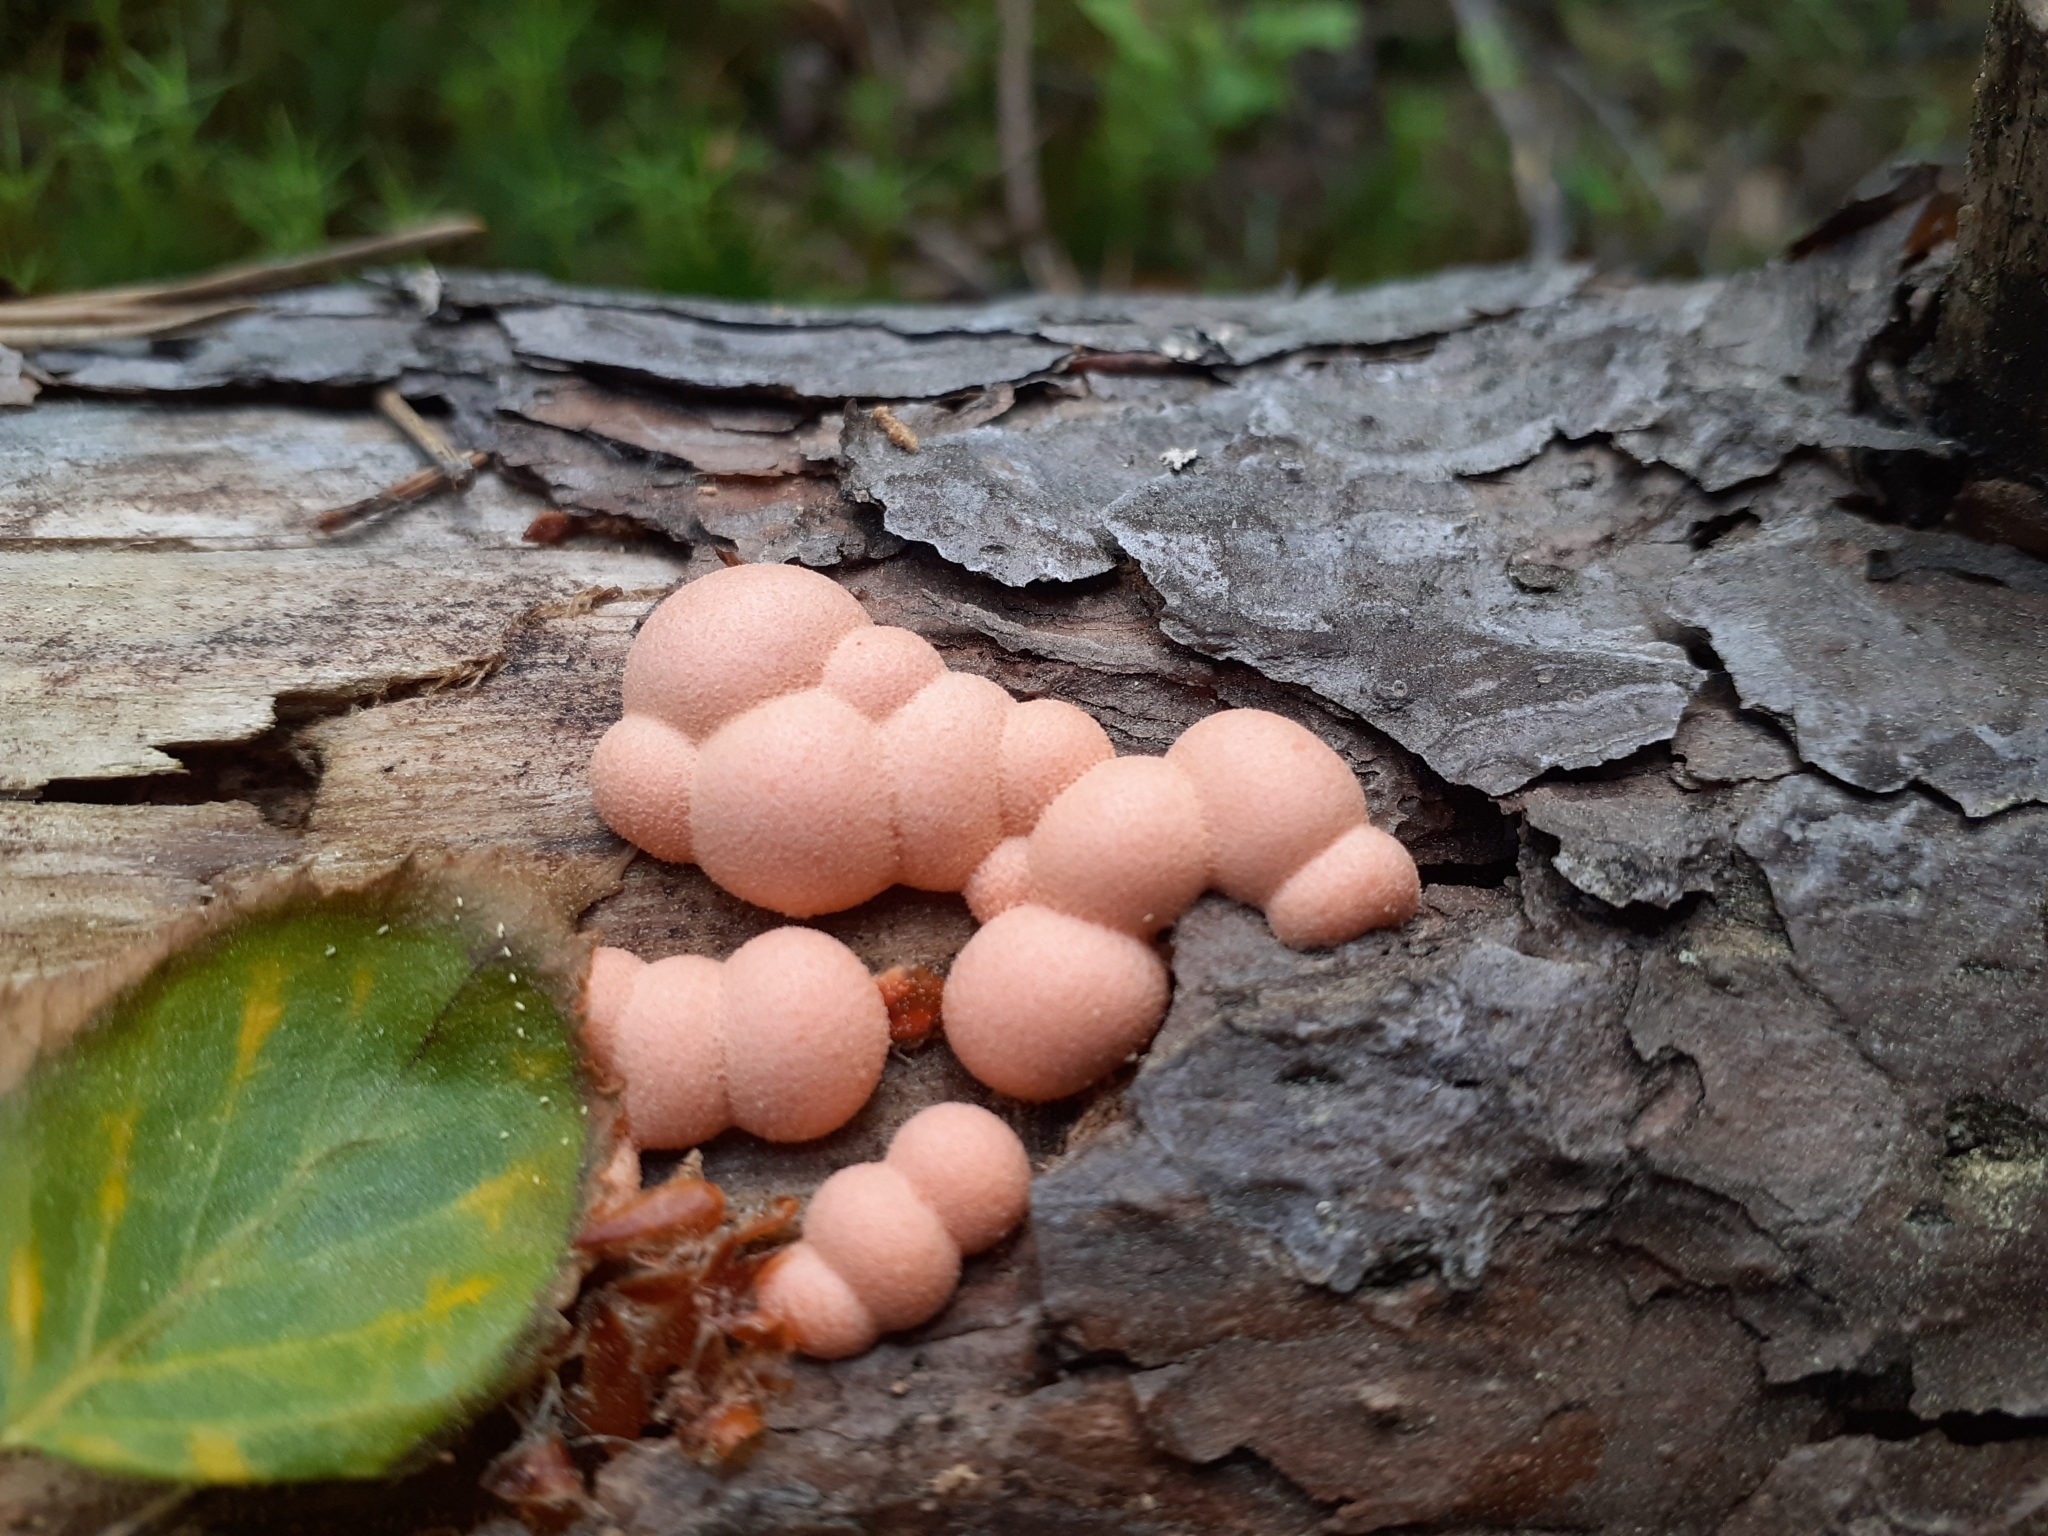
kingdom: Protozoa
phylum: Mycetozoa
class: Myxomycetes
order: Cribrariales
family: Tubiferaceae
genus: Lycogala
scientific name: Lycogala epidendrum
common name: Wolf's milk
